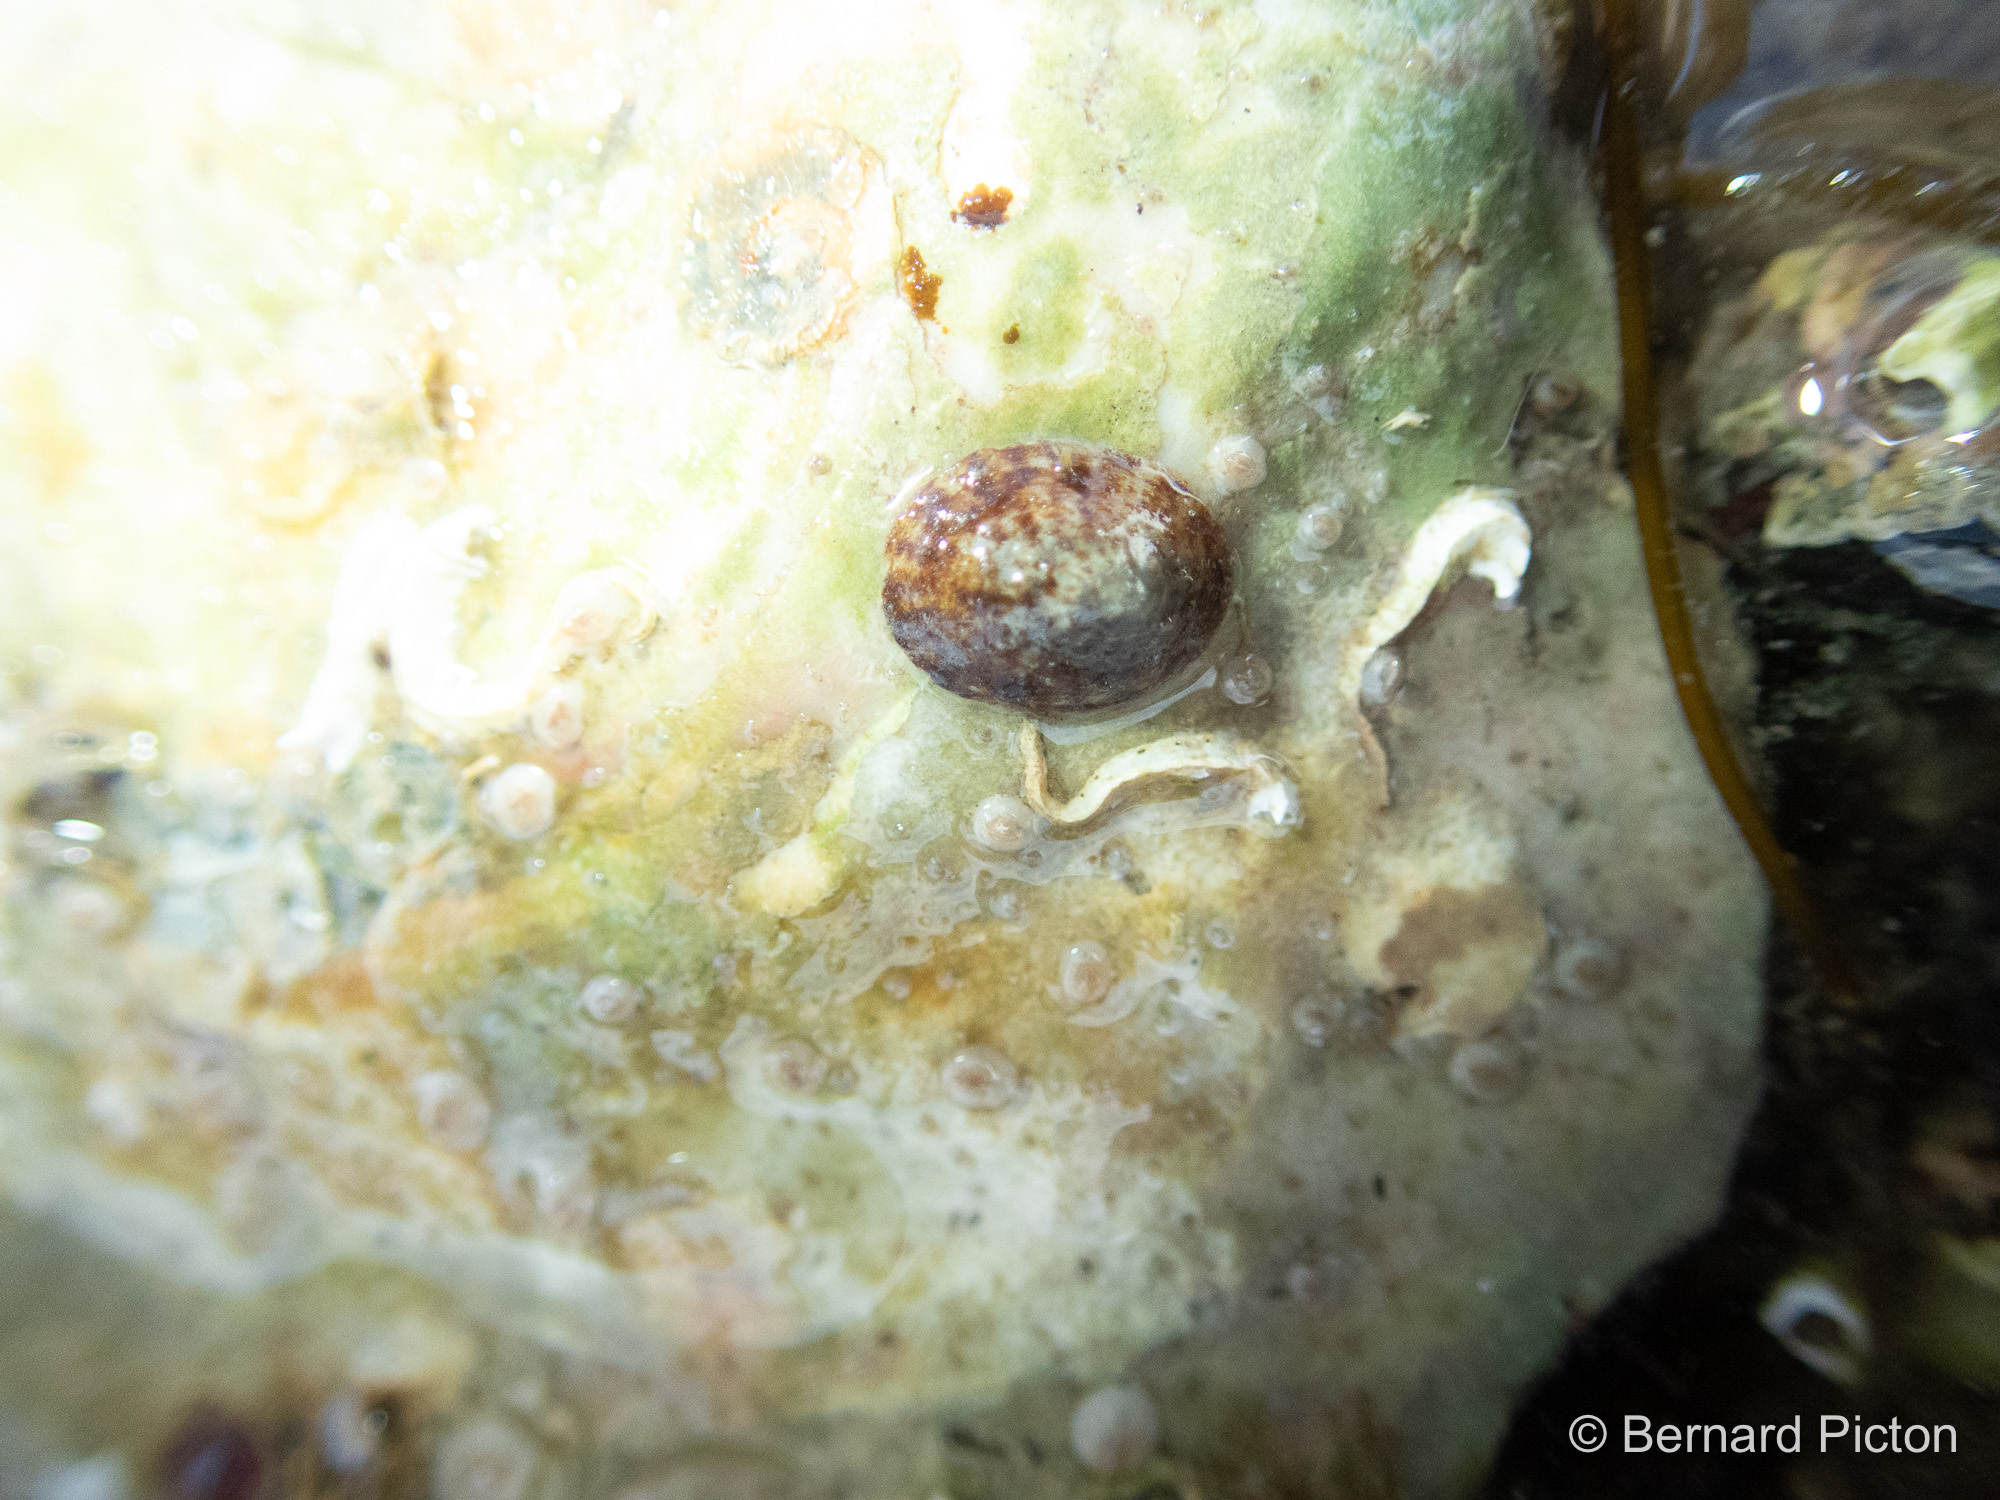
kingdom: Animalia
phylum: Mollusca
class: Gastropoda
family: Lottiidae
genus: Testudinalia
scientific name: Testudinalia testudinalis
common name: Common tortoiseshell limpet
